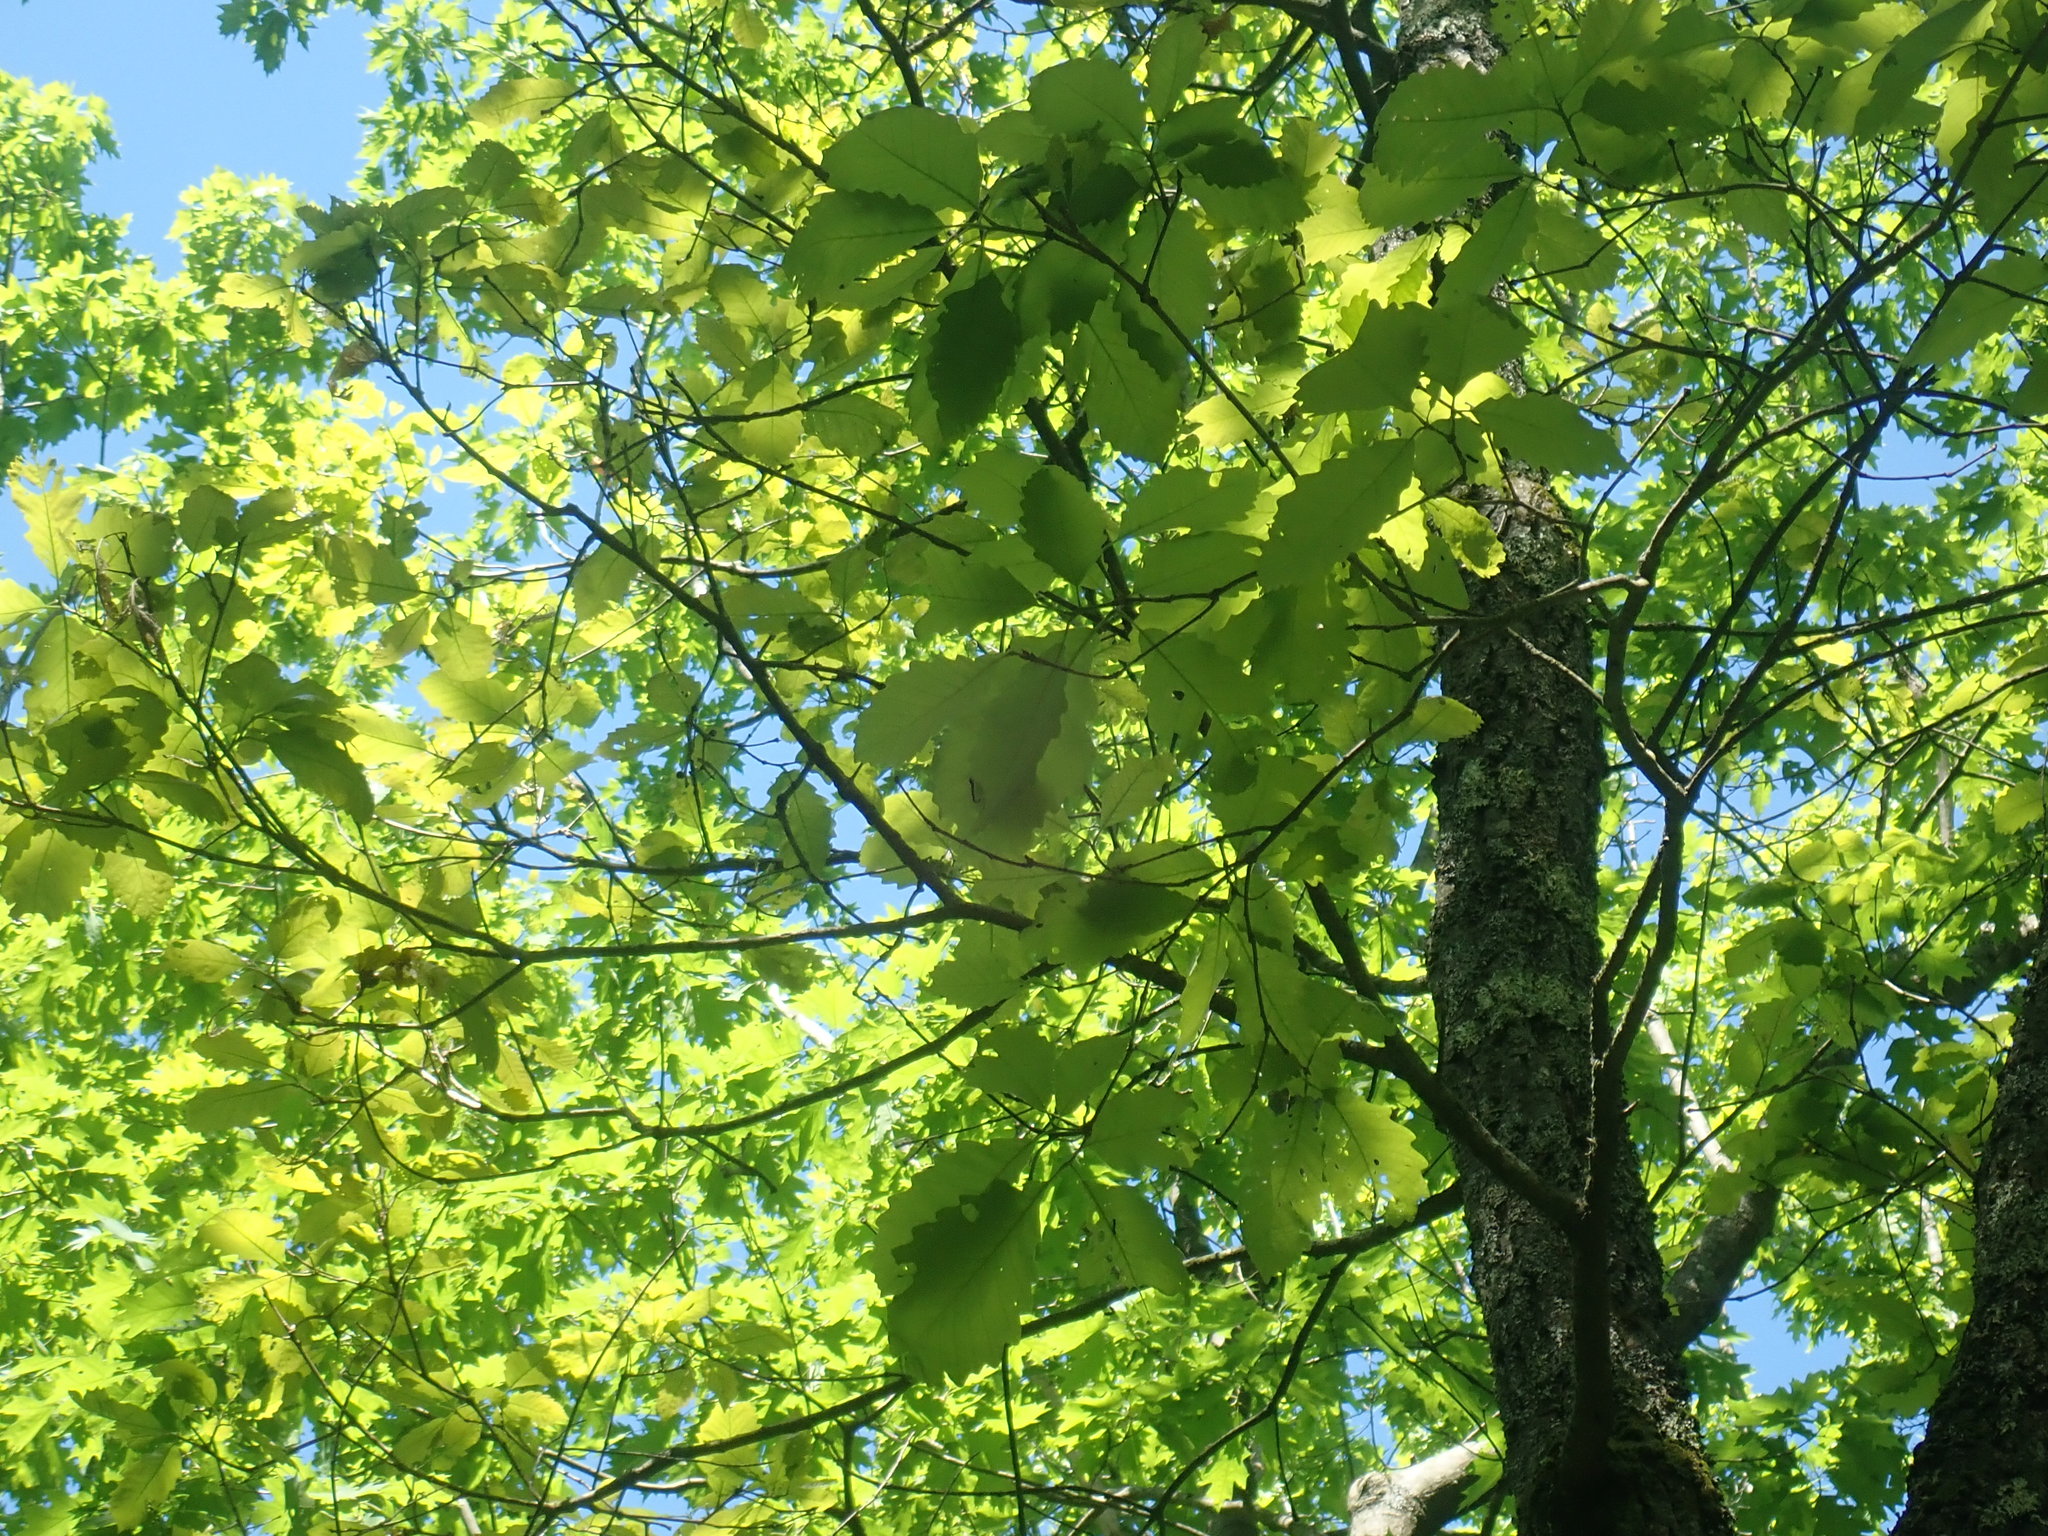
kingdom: Plantae
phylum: Tracheophyta
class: Magnoliopsida
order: Fagales
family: Fagaceae
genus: Quercus
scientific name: Quercus montana
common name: Chestnut oak
